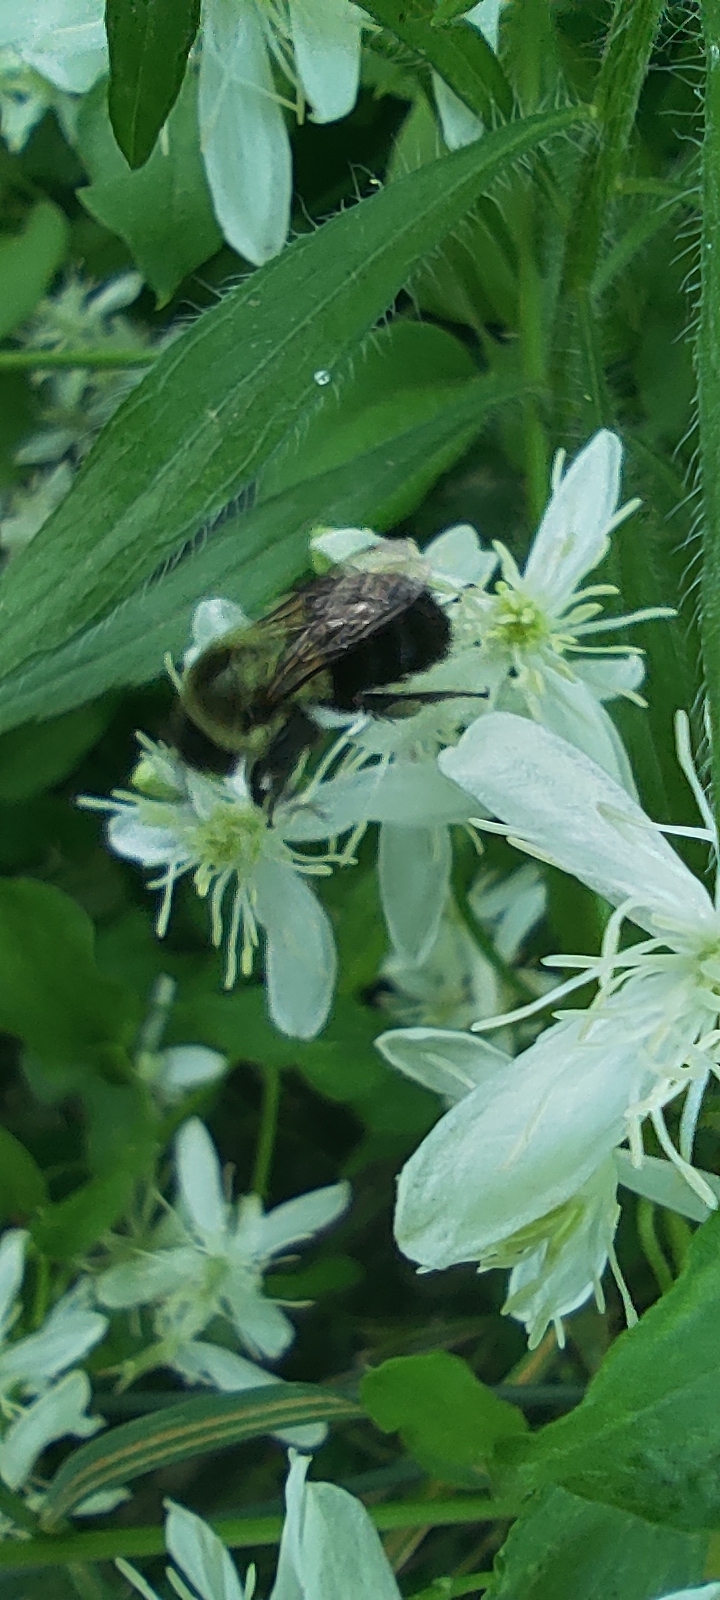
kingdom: Animalia
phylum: Arthropoda
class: Insecta
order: Hymenoptera
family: Apidae
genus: Bombus
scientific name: Bombus impatiens
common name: Common eastern bumble bee
